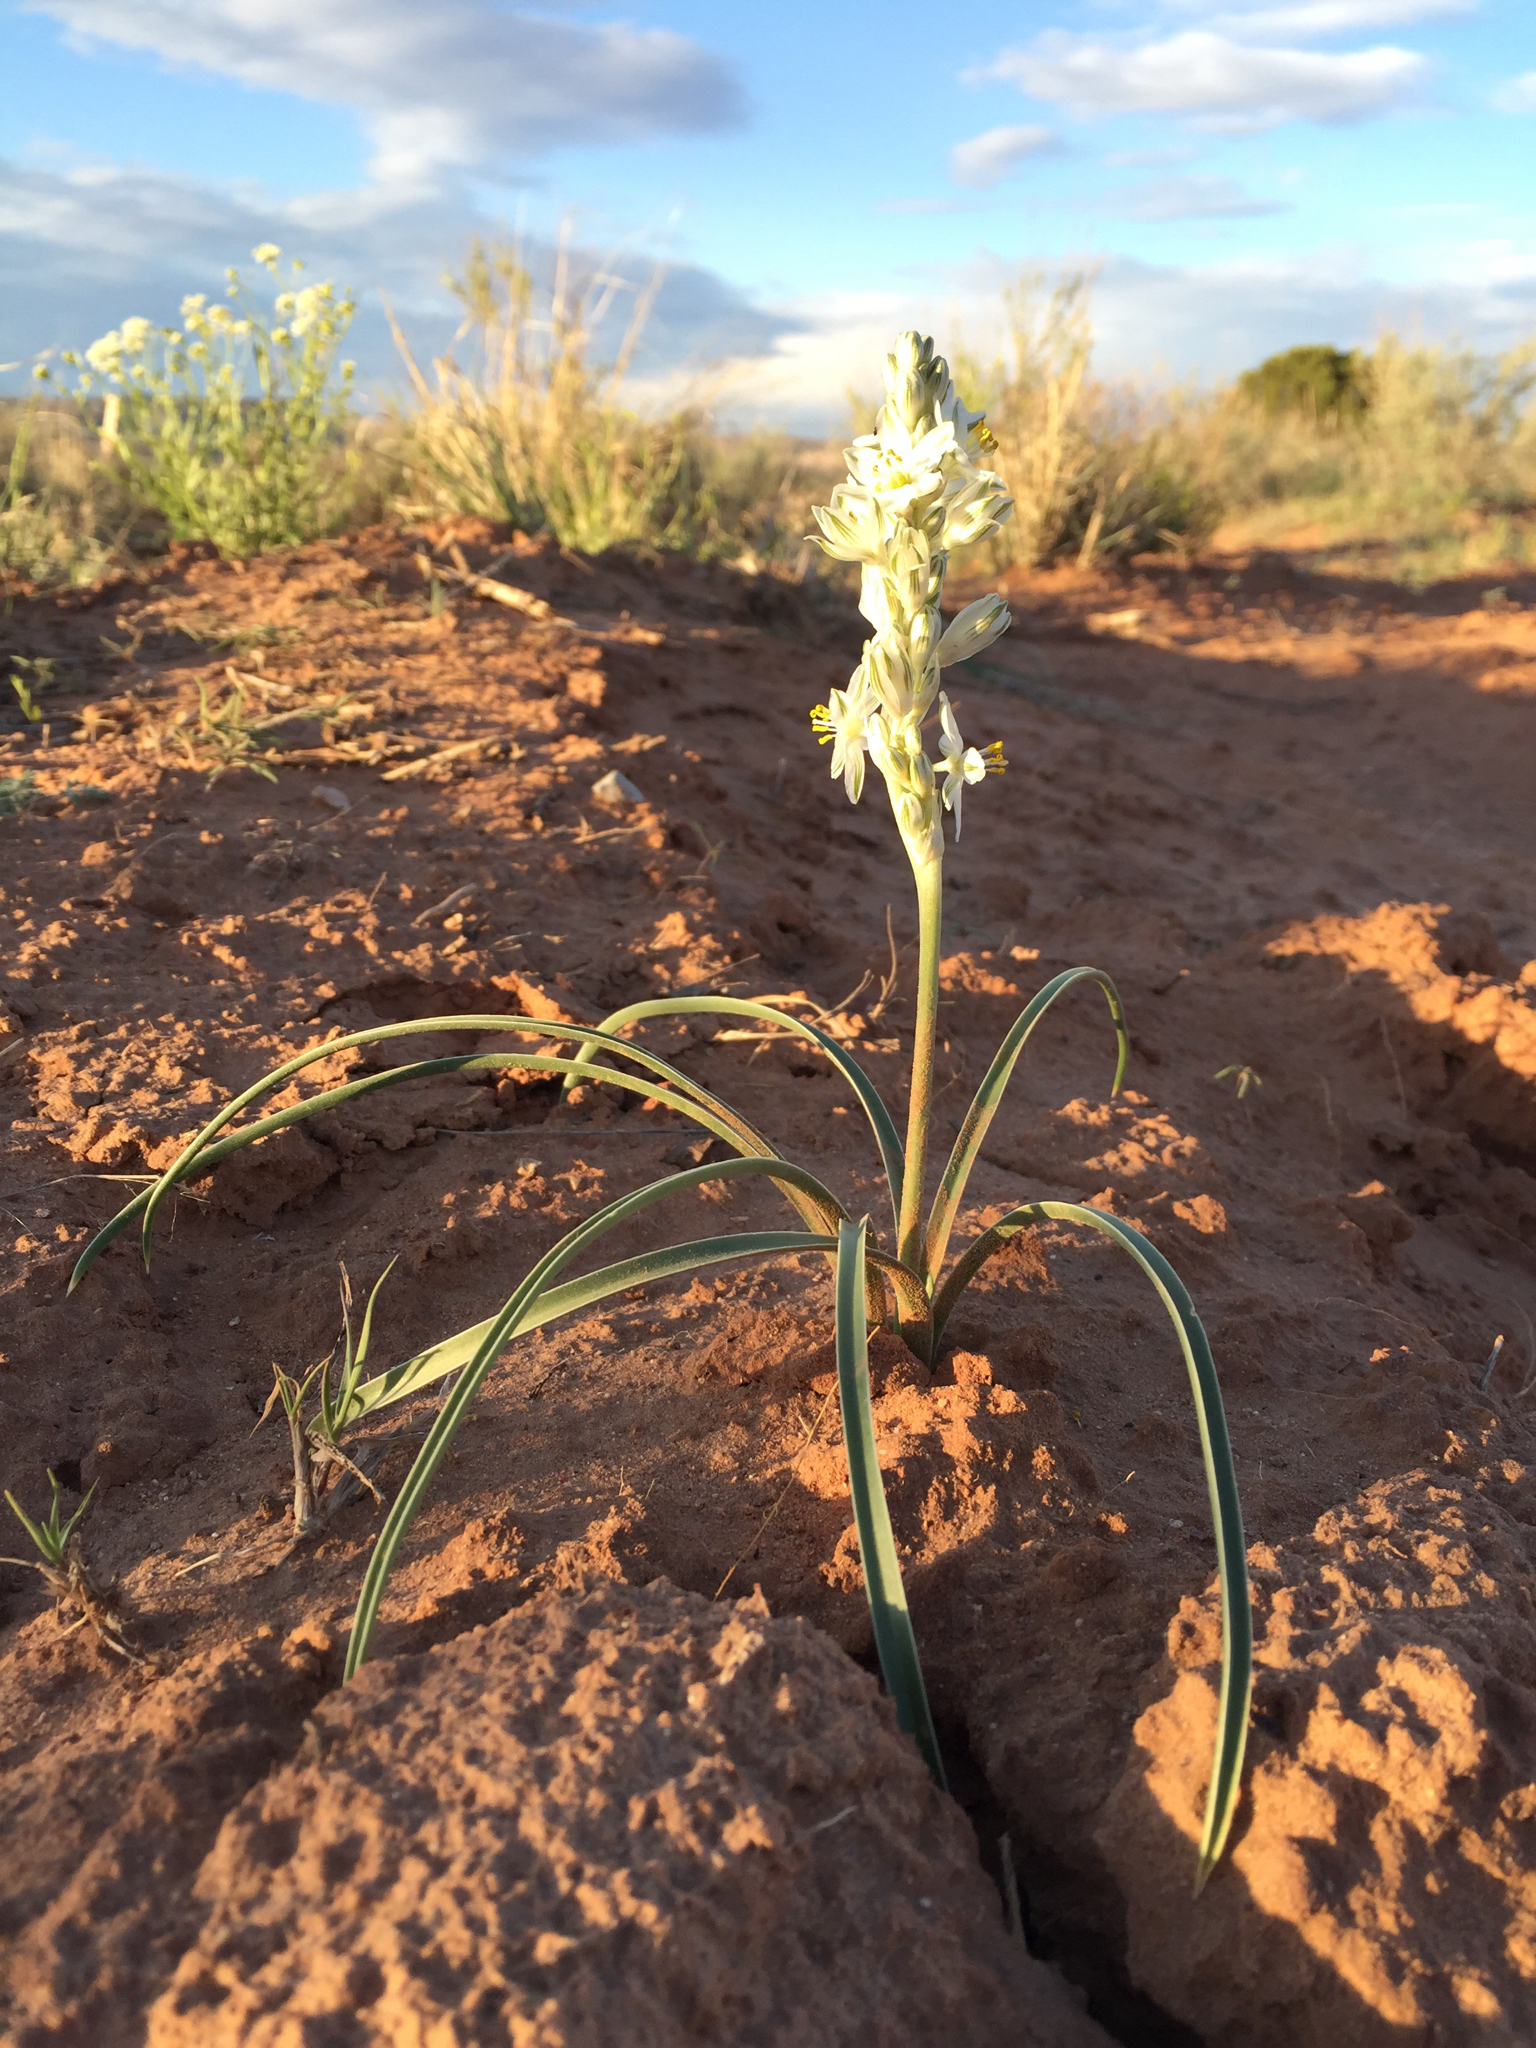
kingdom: Plantae
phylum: Tracheophyta
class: Liliopsida
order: Asparagales
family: Asparagaceae
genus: Eremocrinum
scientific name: Eremocrinum albomarginatum
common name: Sand-lily
